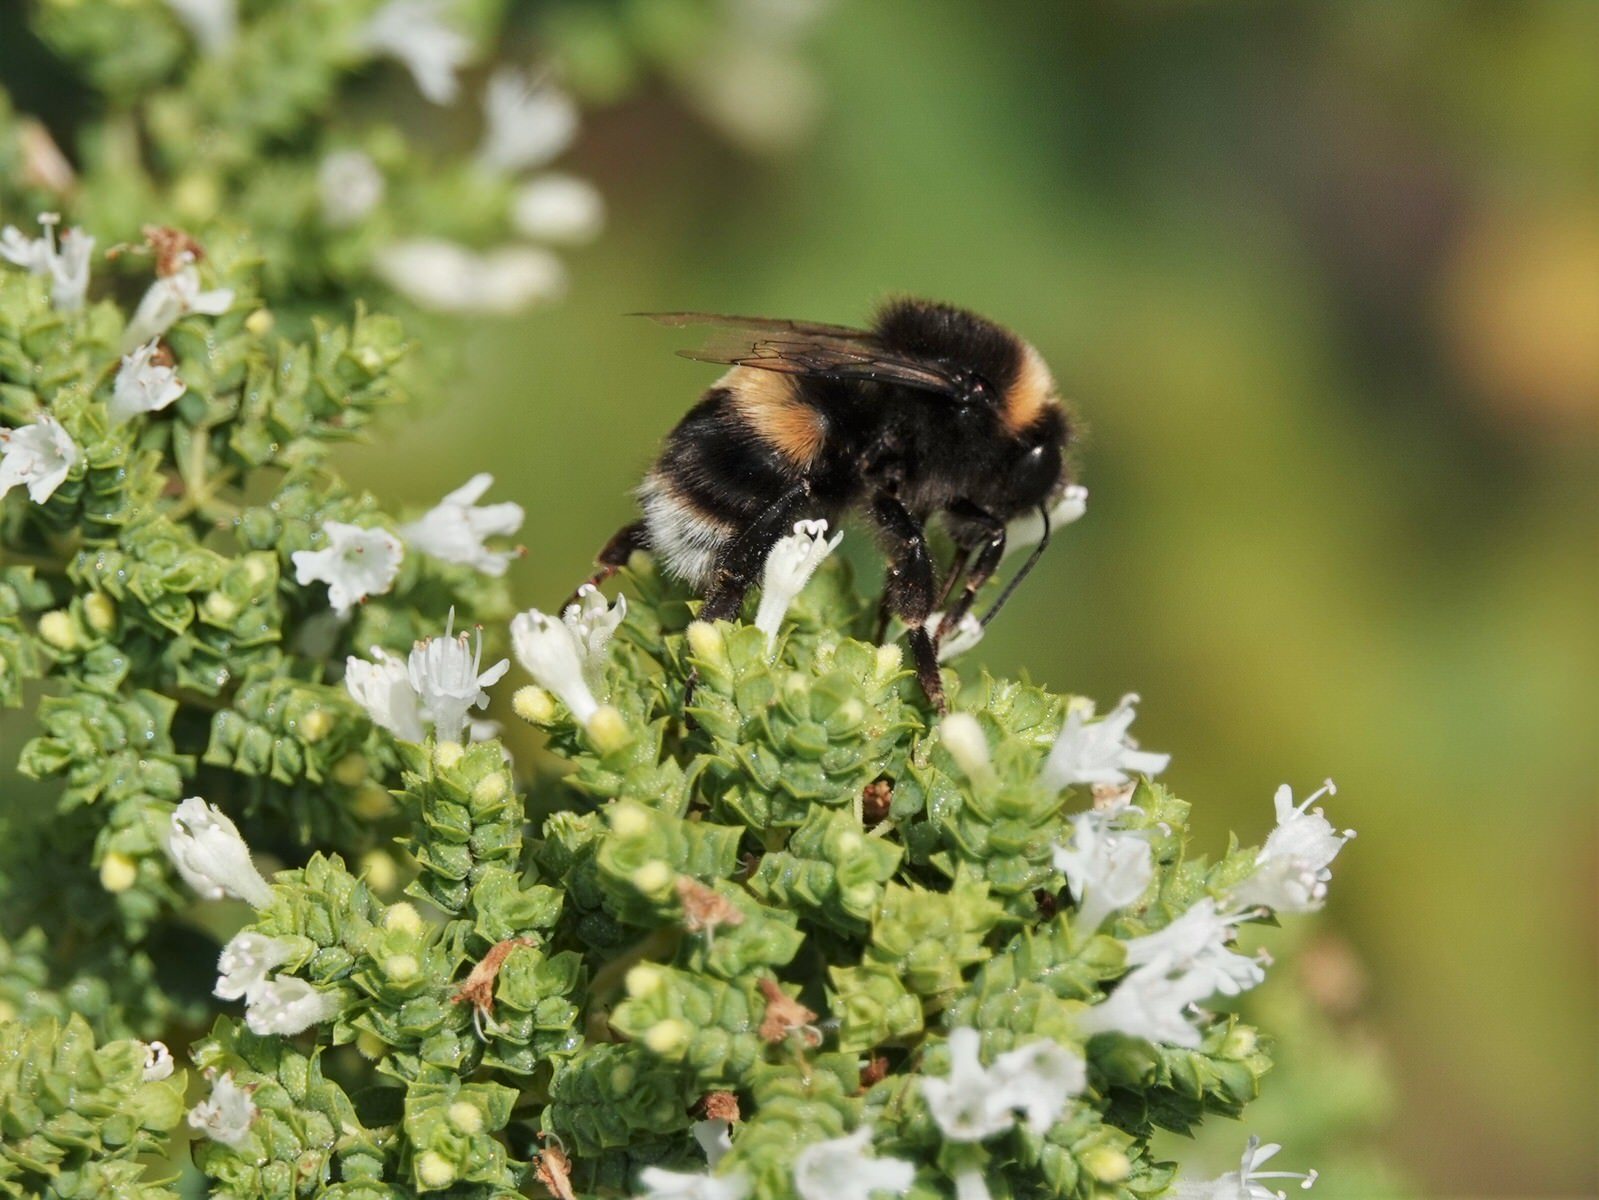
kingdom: Animalia
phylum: Arthropoda
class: Insecta
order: Hymenoptera
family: Apidae
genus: Bombus
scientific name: Bombus terrestris
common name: Buff-tailed bumblebee
